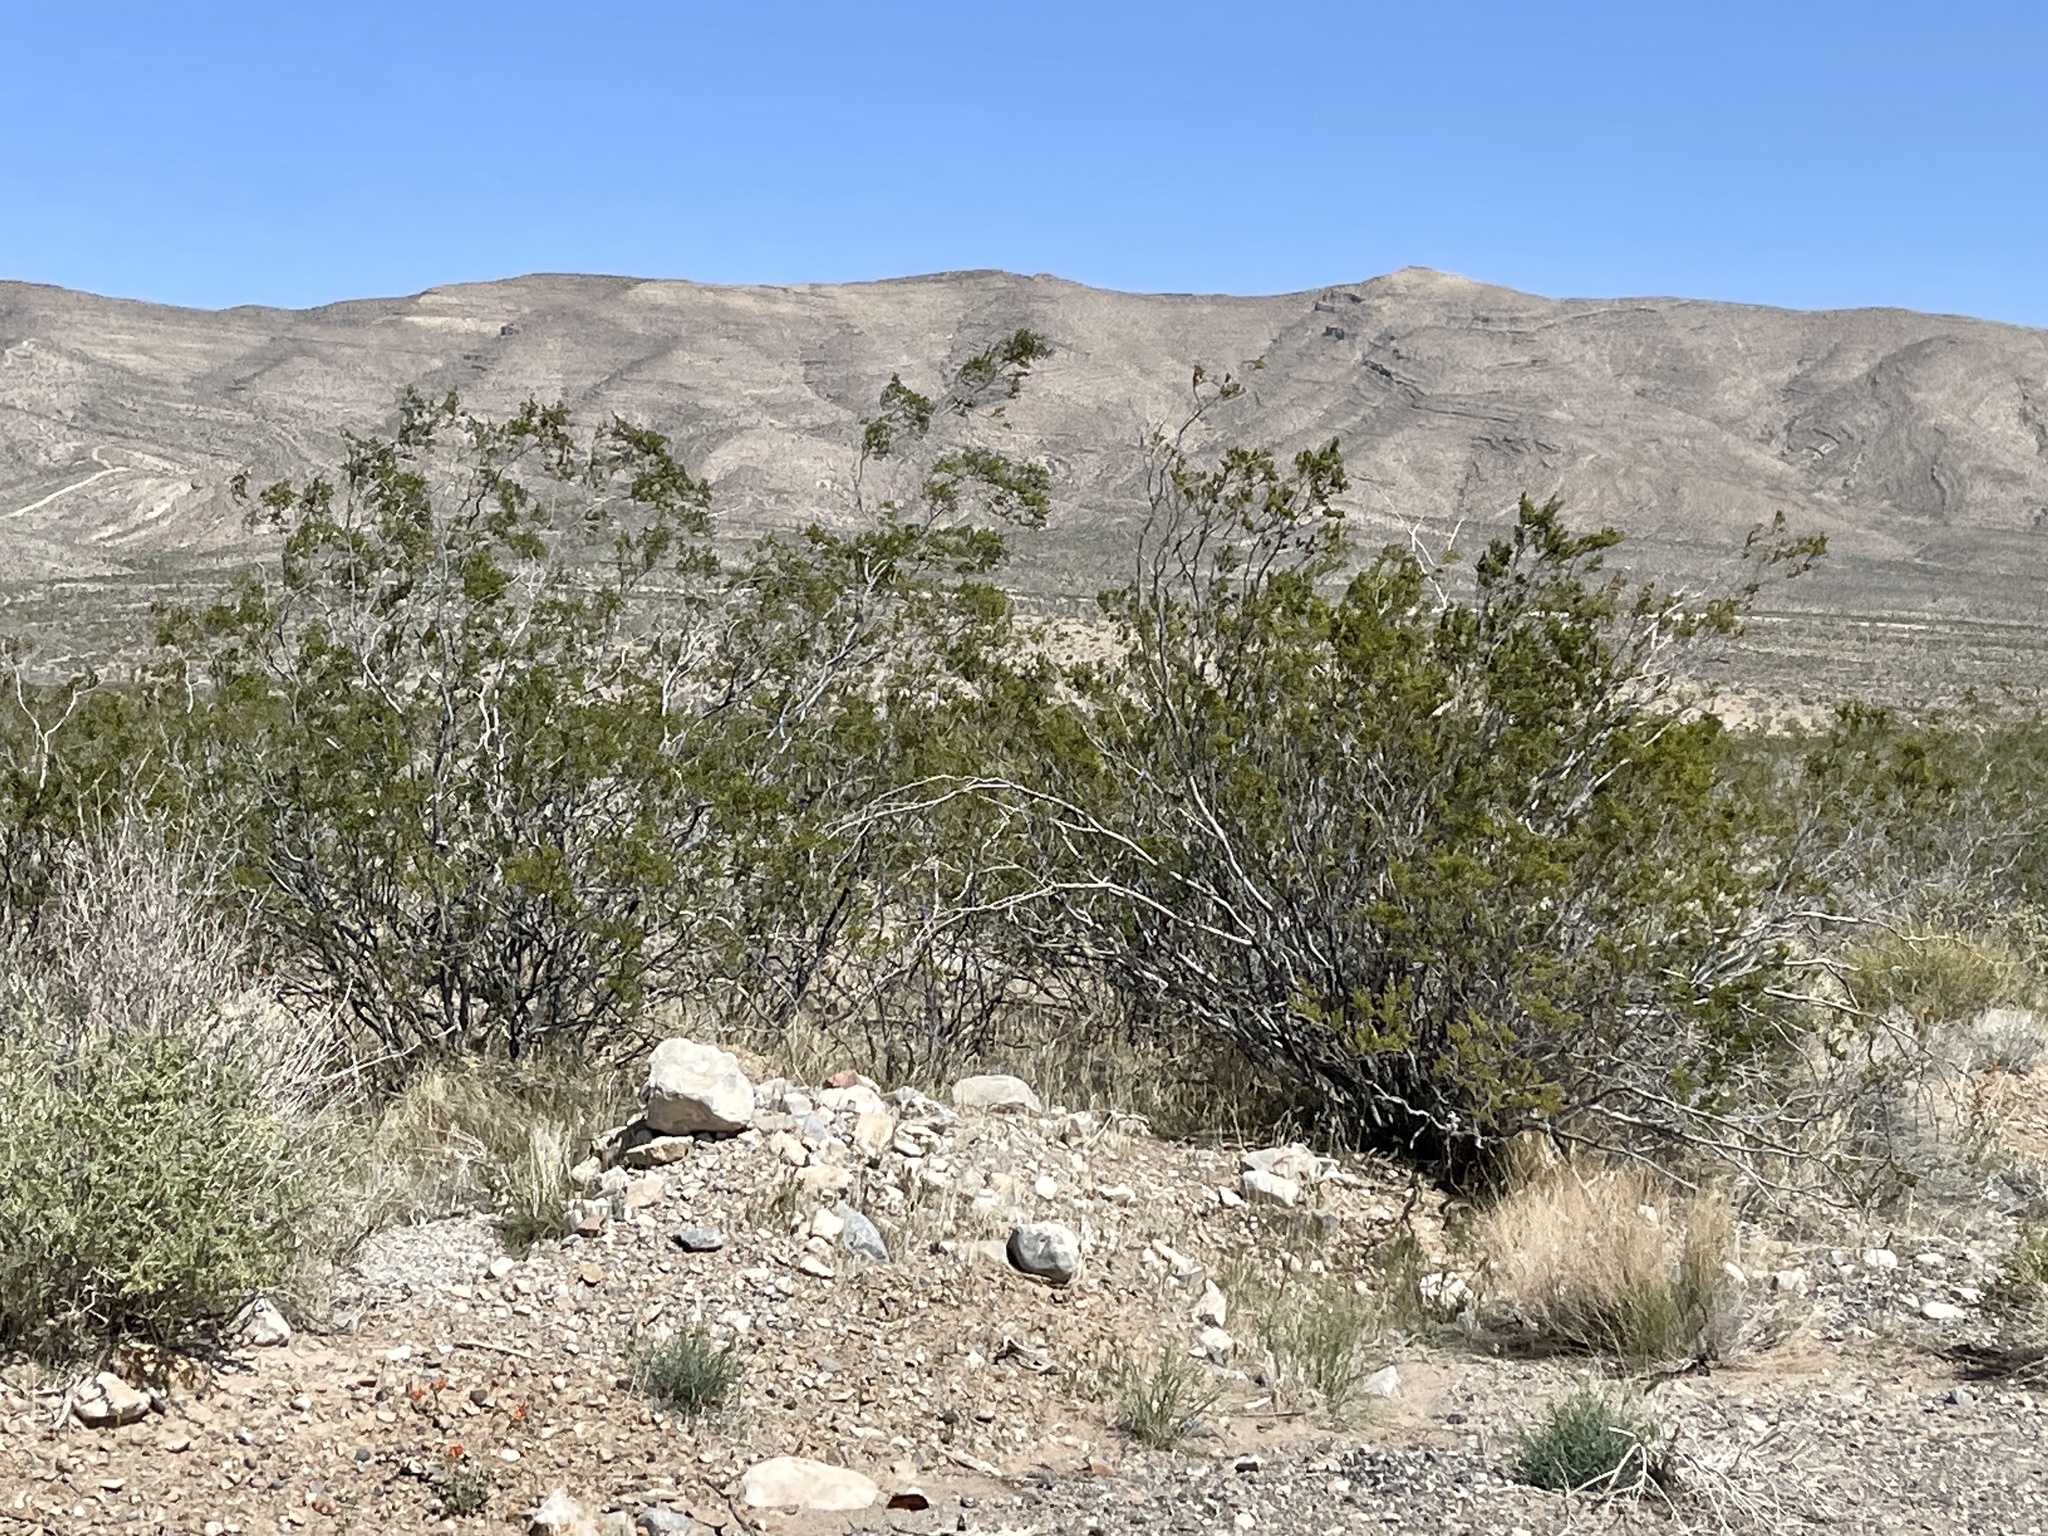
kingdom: Plantae
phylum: Tracheophyta
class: Magnoliopsida
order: Zygophyllales
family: Zygophyllaceae
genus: Larrea
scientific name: Larrea tridentata
